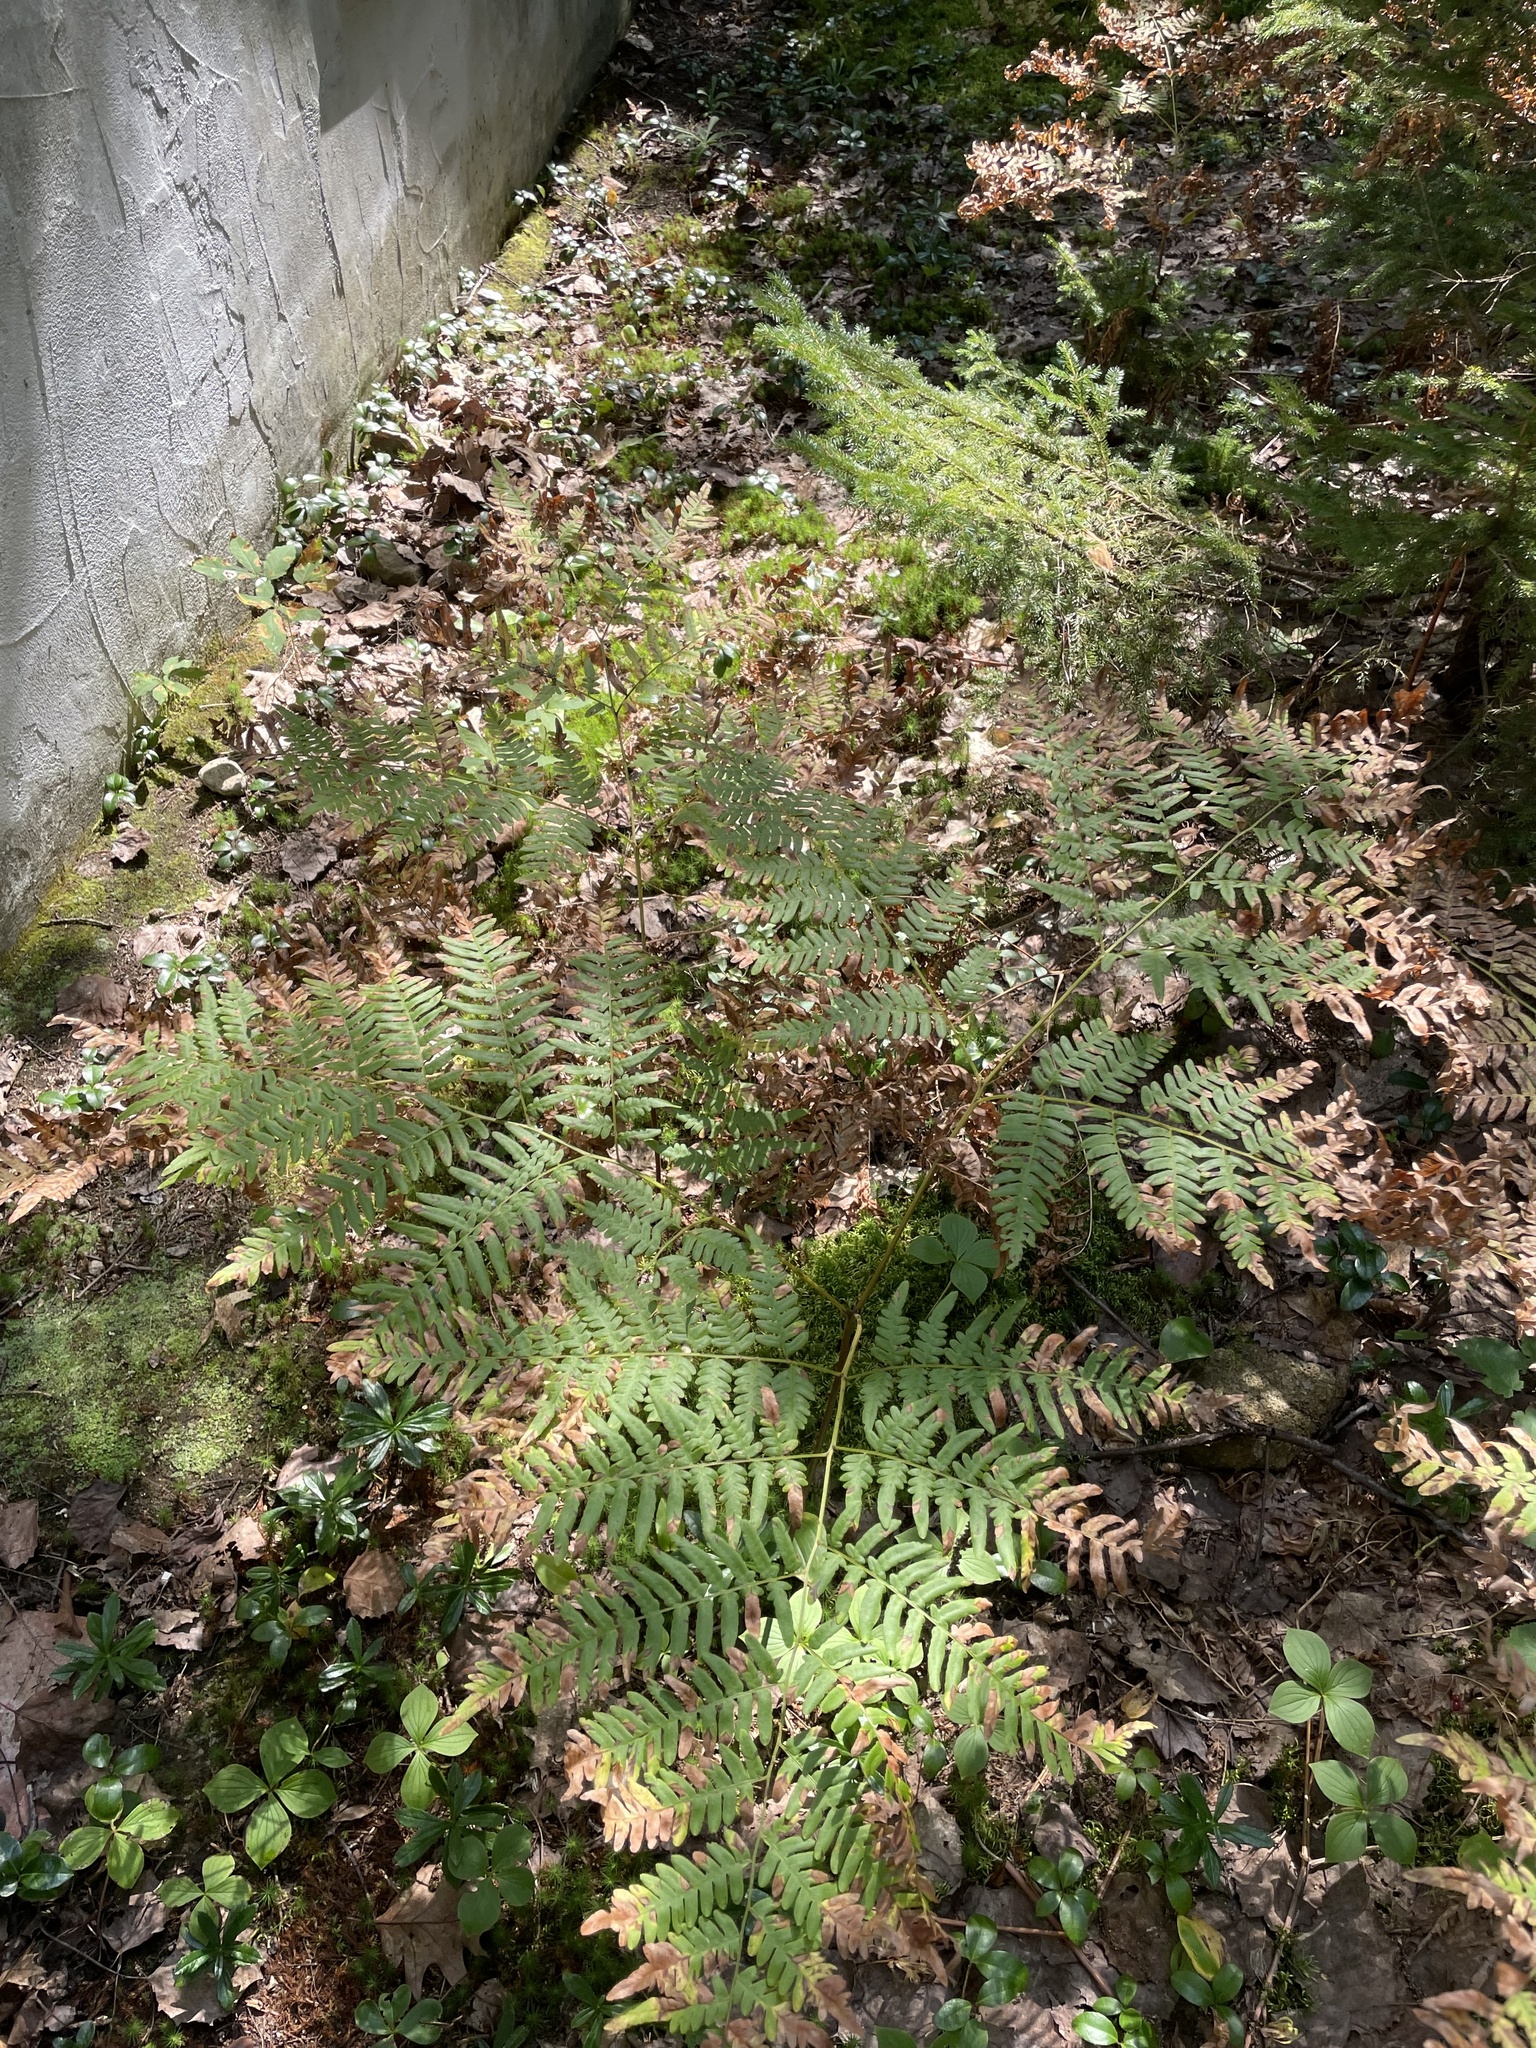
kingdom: Plantae
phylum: Tracheophyta
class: Polypodiopsida
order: Polypodiales
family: Dennstaedtiaceae
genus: Pteridium
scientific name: Pteridium aquilinum
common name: Bracken
